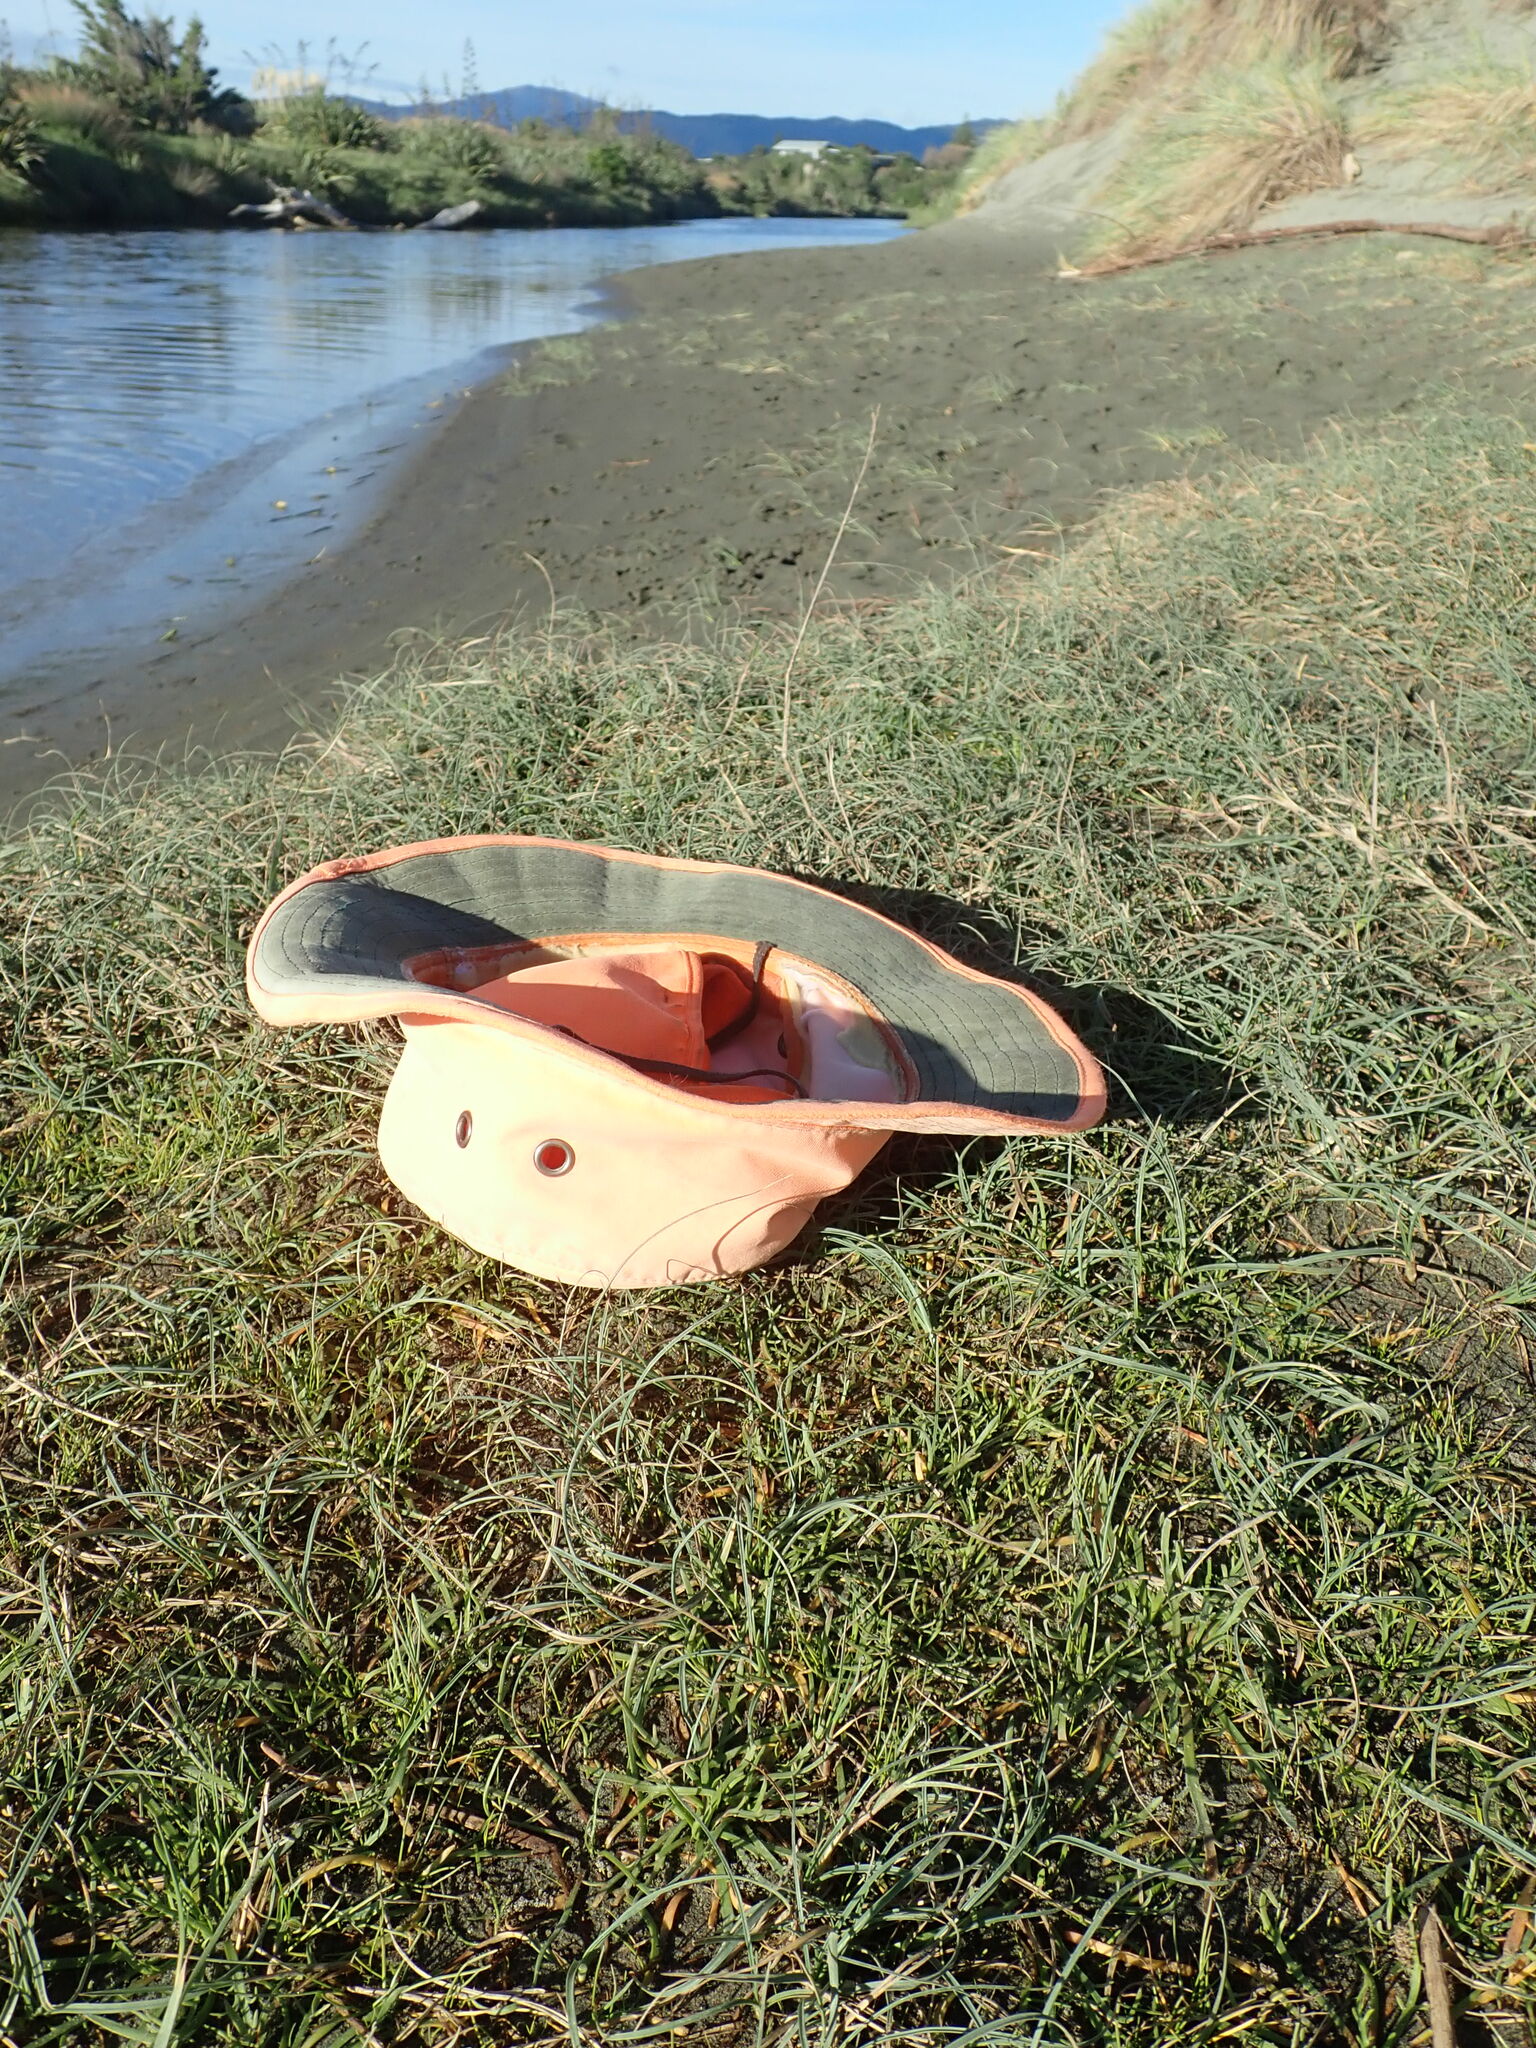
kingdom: Plantae
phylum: Tracheophyta
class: Magnoliopsida
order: Lamiales
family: Plantaginaceae
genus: Plantago
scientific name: Plantago coronopus
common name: Buck's-horn plantain
